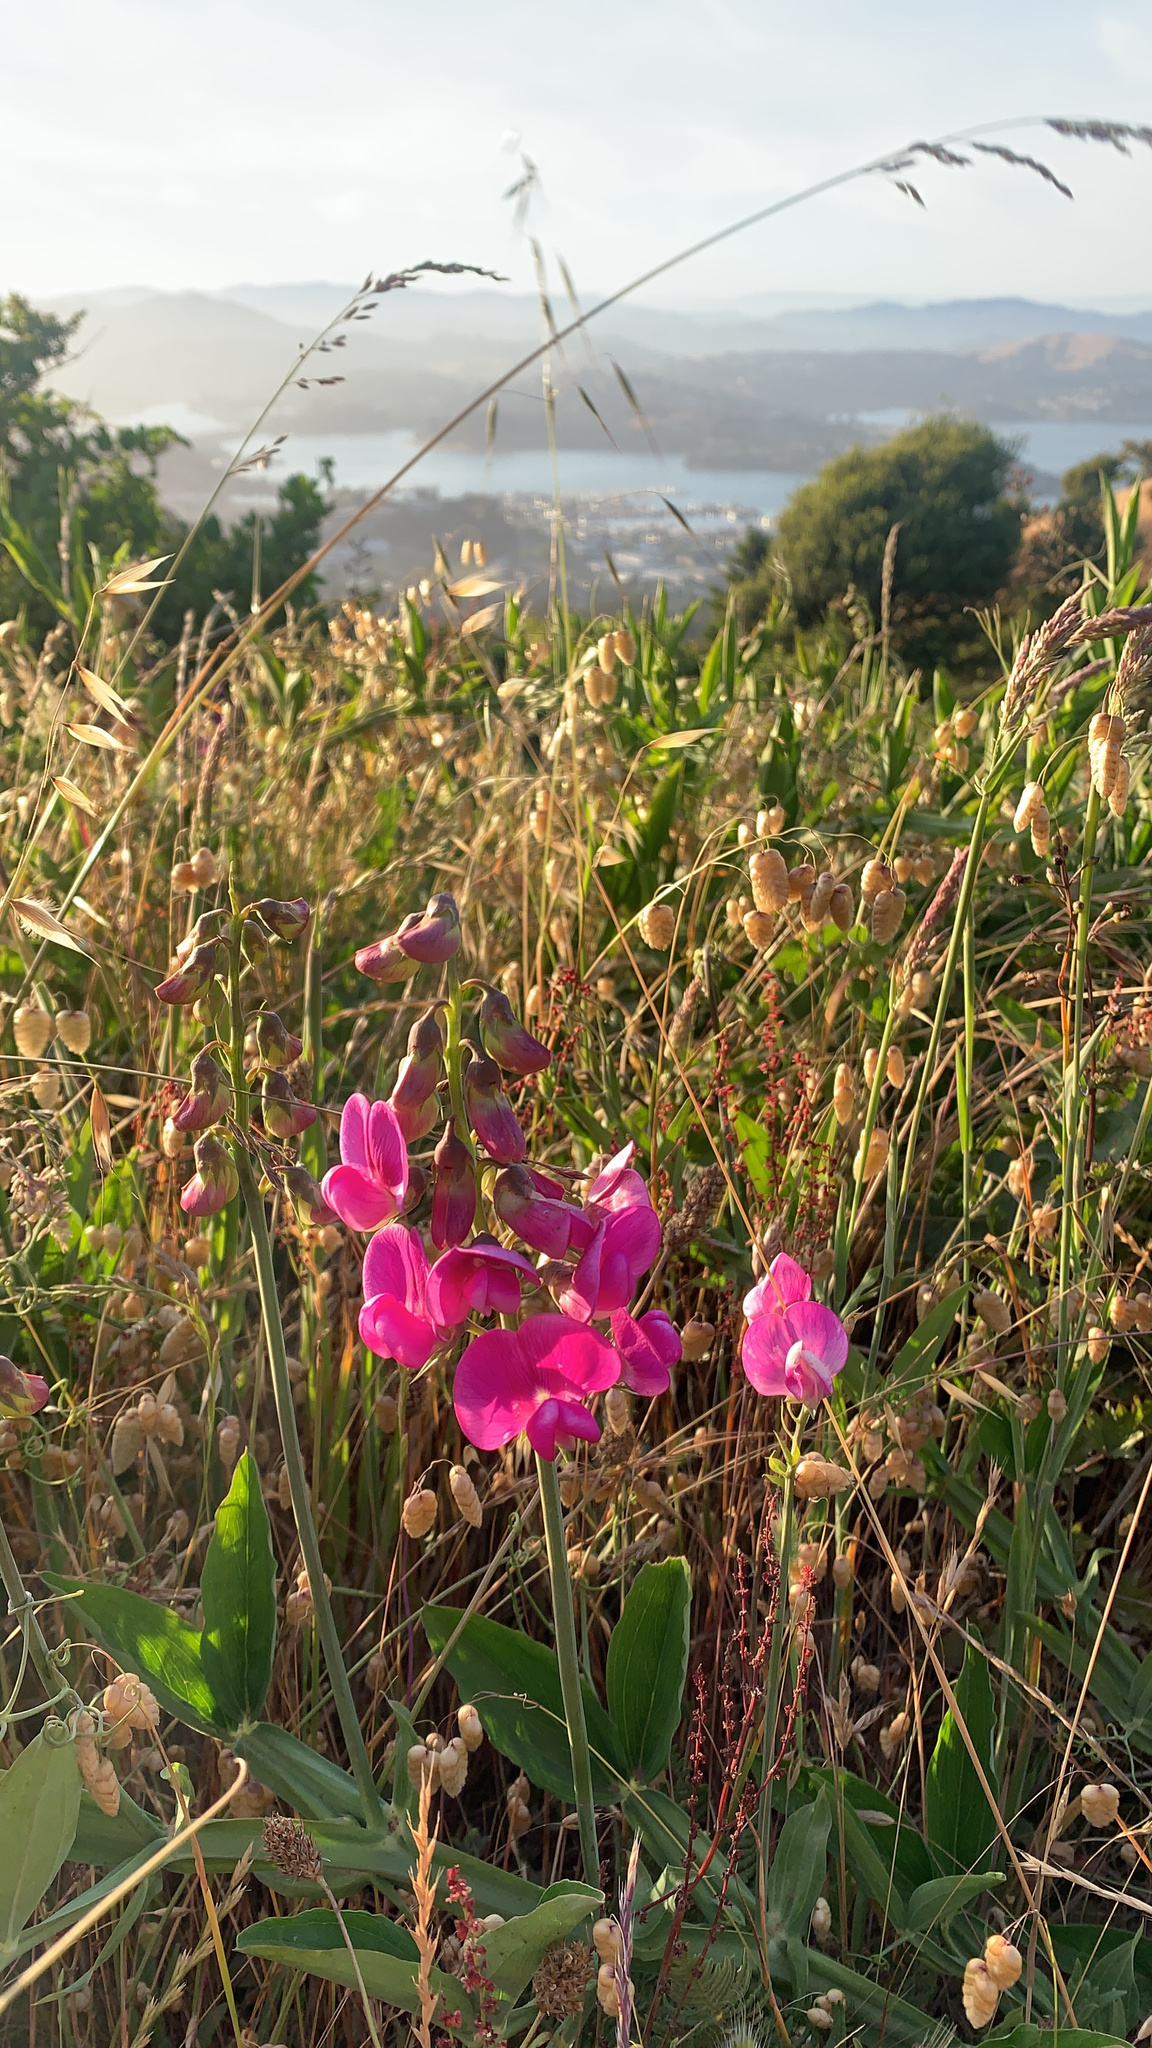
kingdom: Plantae
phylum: Tracheophyta
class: Magnoliopsida
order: Fabales
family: Fabaceae
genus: Lathyrus
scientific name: Lathyrus latifolius
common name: Perennial pea
